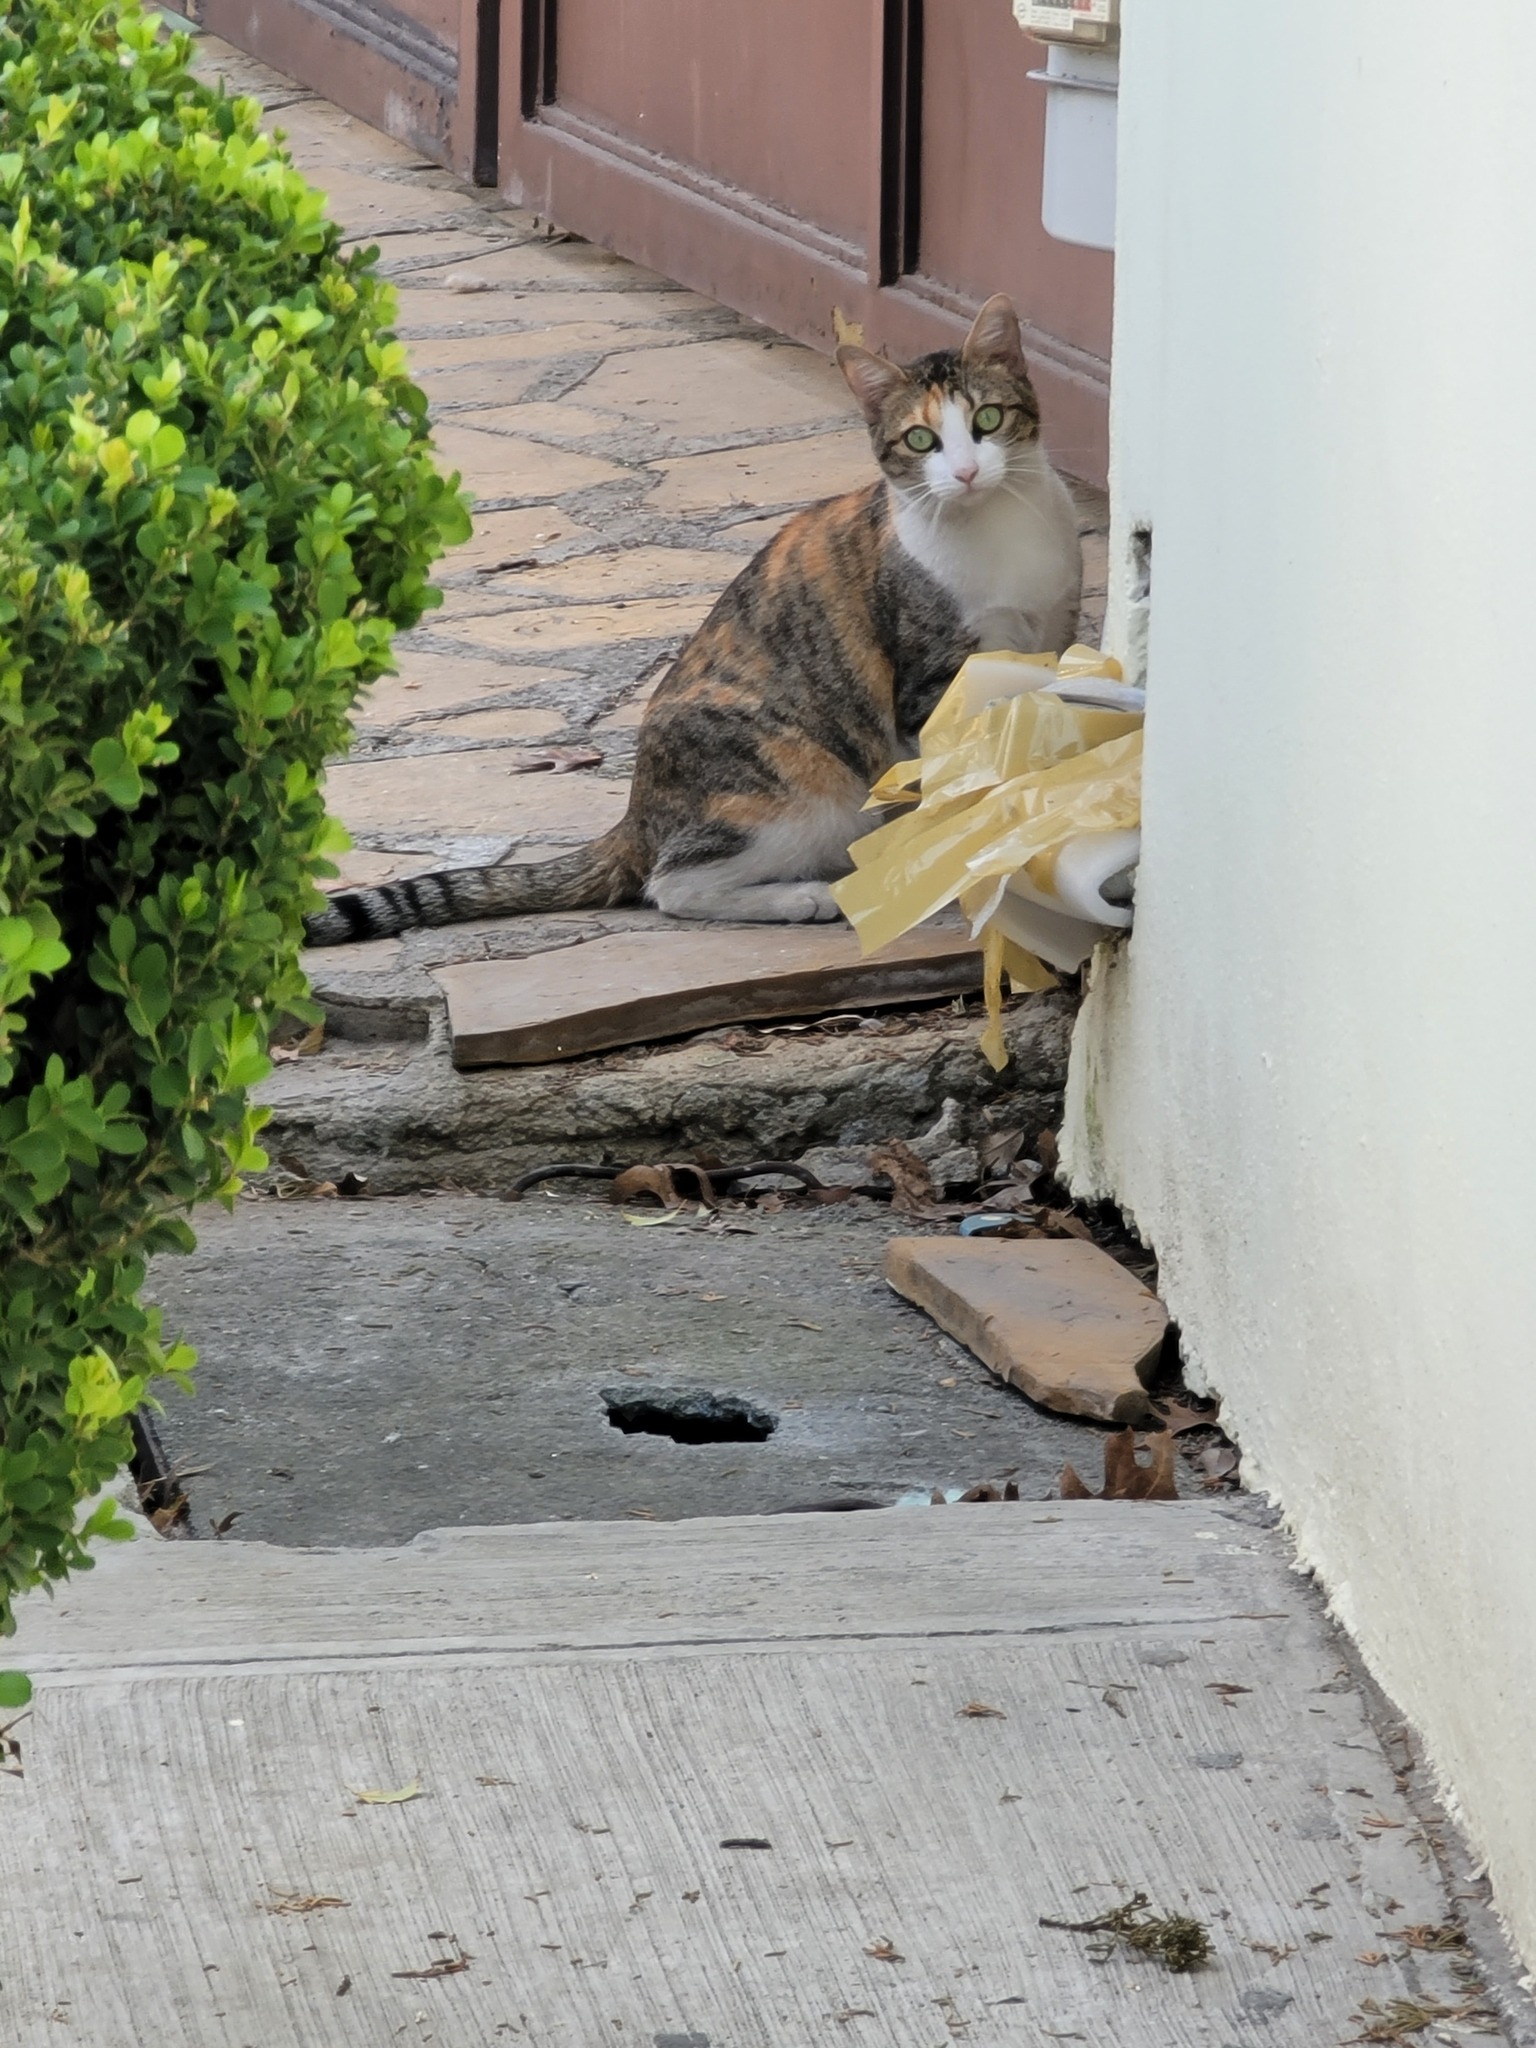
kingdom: Animalia
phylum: Chordata
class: Mammalia
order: Carnivora
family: Felidae
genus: Felis
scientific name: Felis catus
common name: Domestic cat
